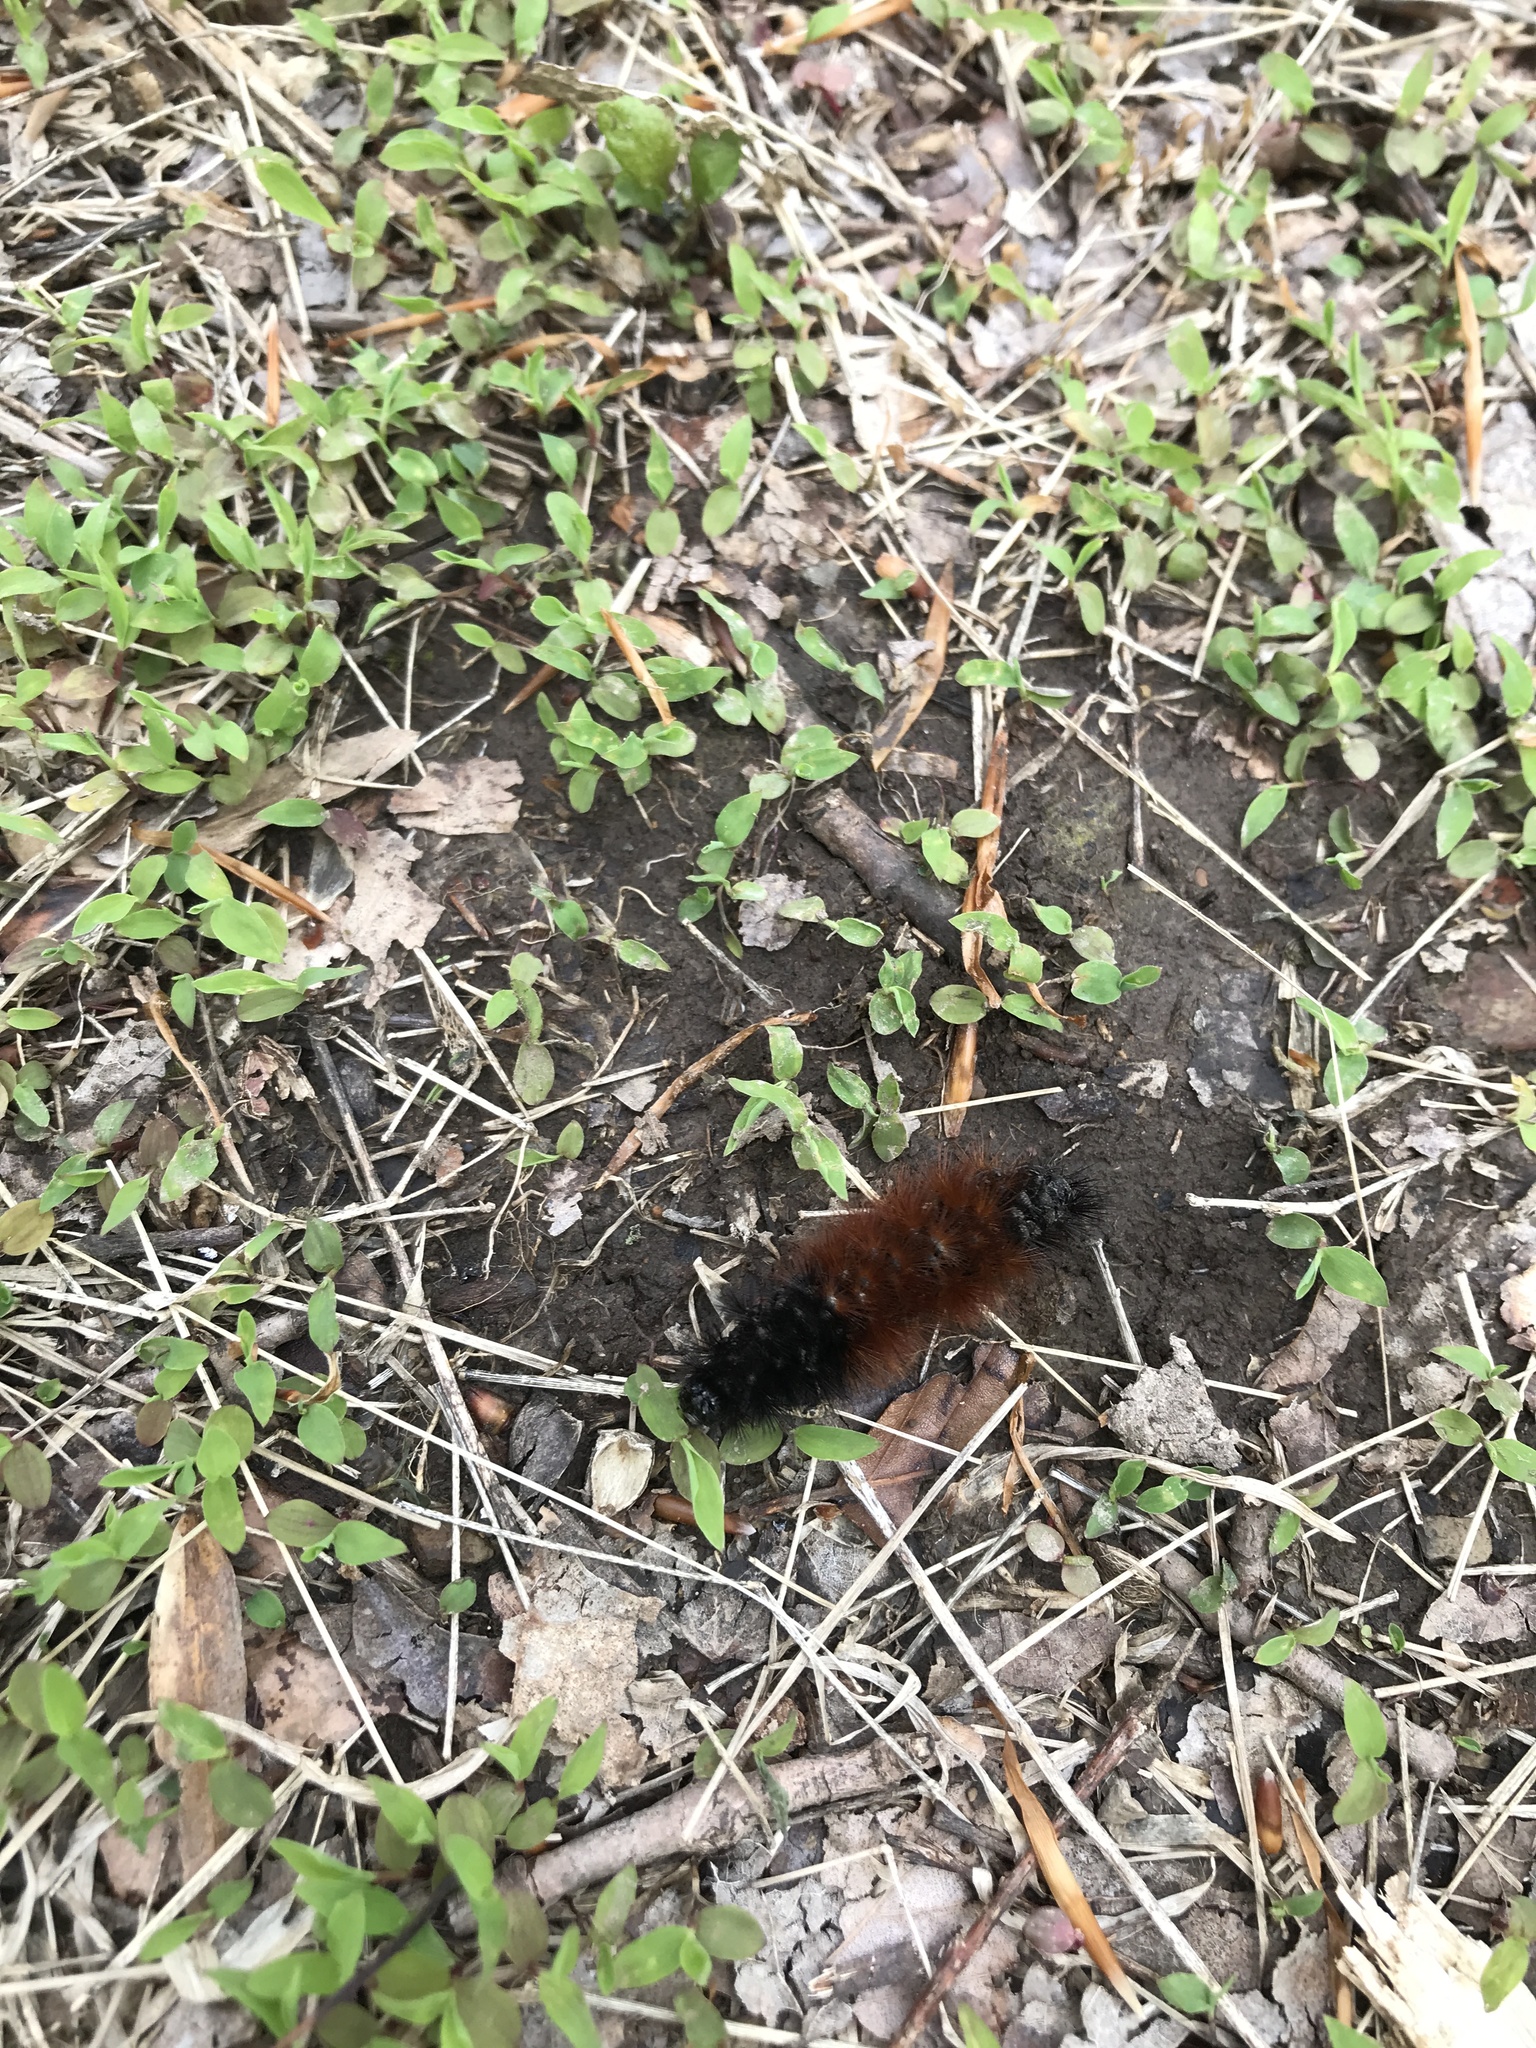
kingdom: Animalia
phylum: Arthropoda
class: Insecta
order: Lepidoptera
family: Erebidae
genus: Pyrrharctia
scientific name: Pyrrharctia isabella
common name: Isabella tiger moth
